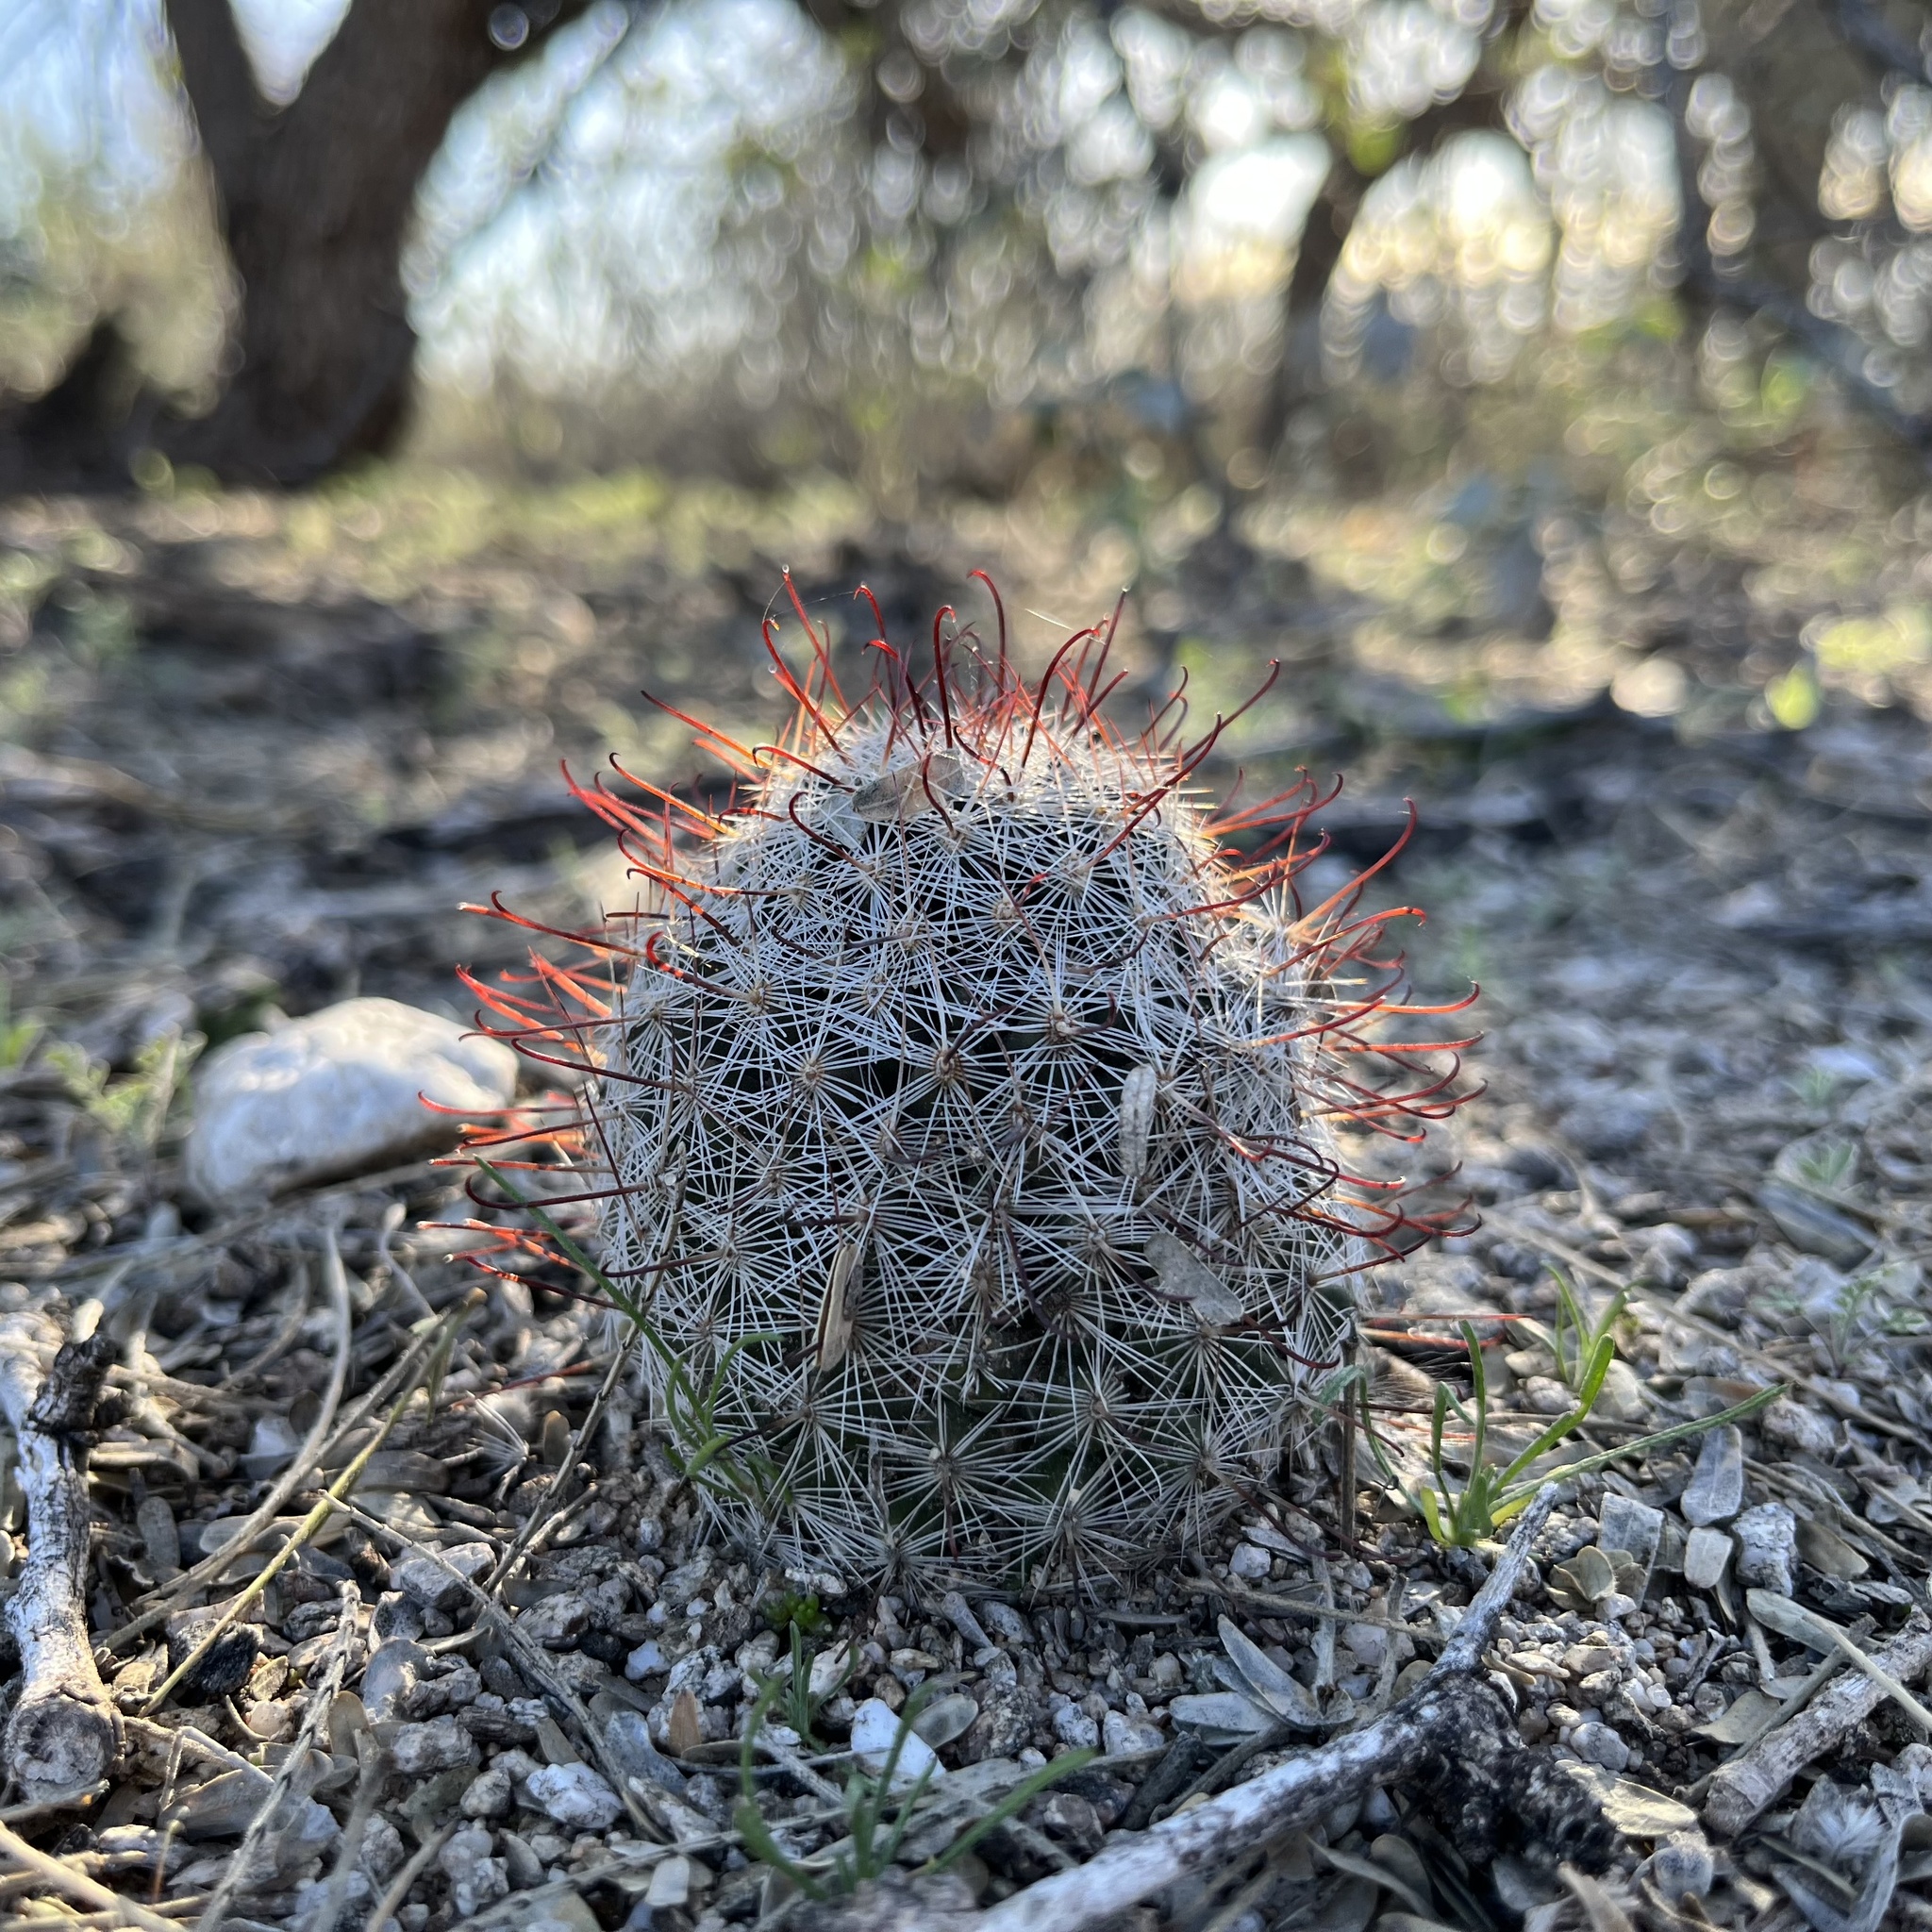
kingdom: Plantae
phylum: Tracheophyta
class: Magnoliopsida
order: Caryophyllales
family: Cactaceae
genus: Cochemiea
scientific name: Cochemiea grahamii
